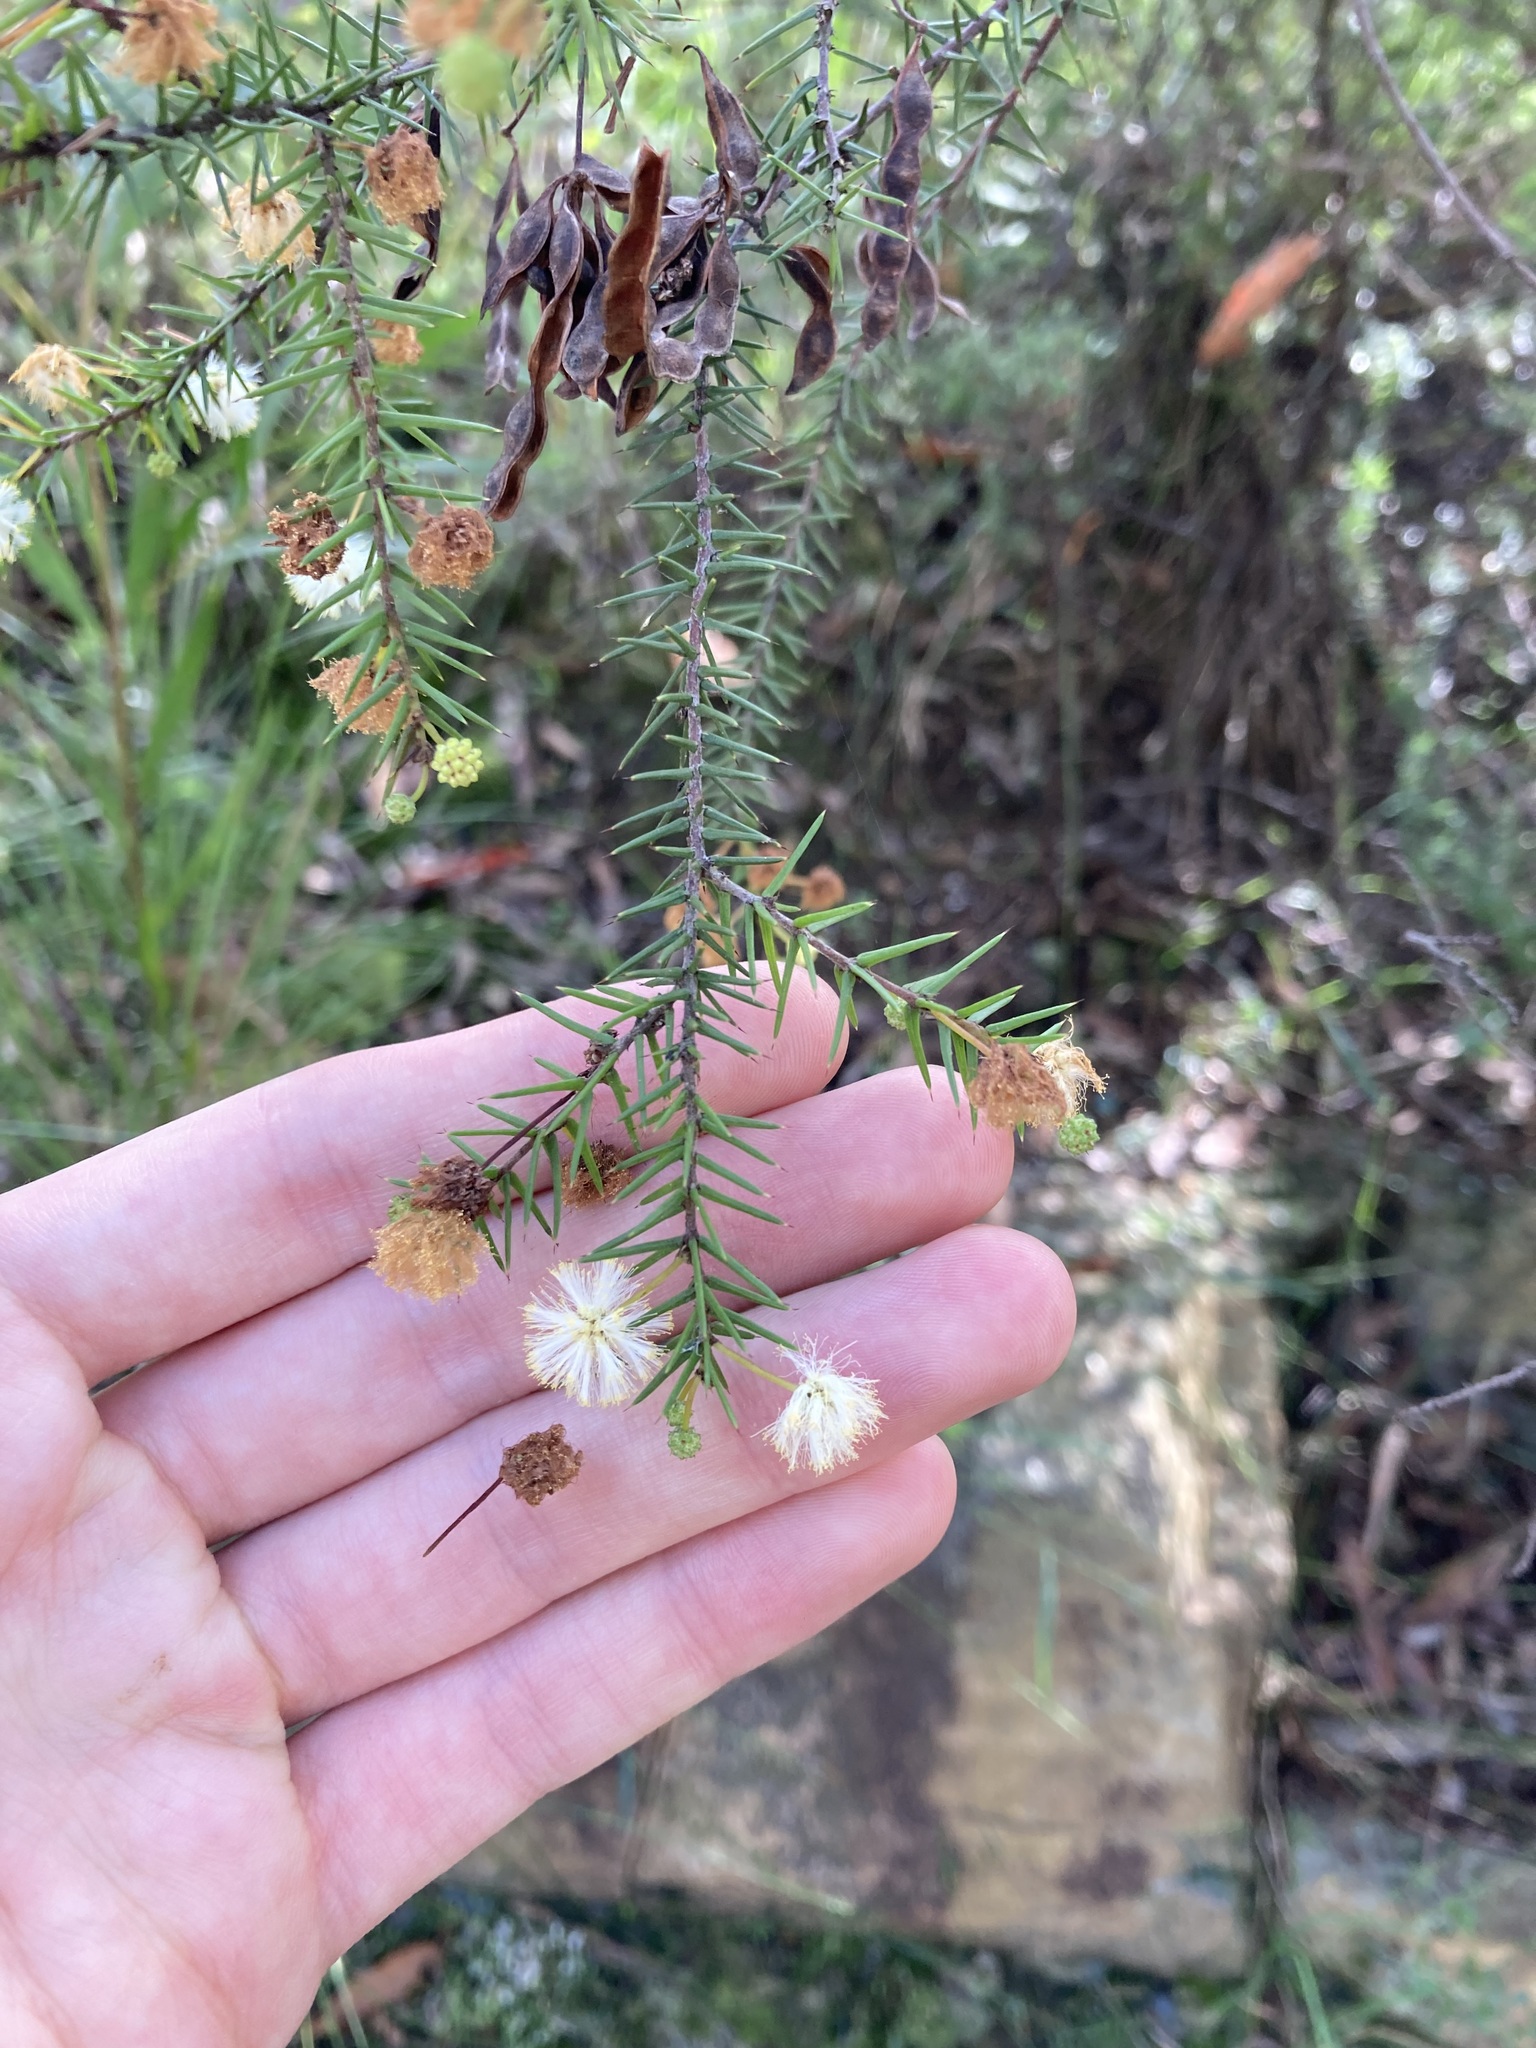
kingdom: Plantae
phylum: Tracheophyta
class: Magnoliopsida
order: Fabales
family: Fabaceae
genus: Acacia
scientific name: Acacia ulicifolia
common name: Juniper wattle
